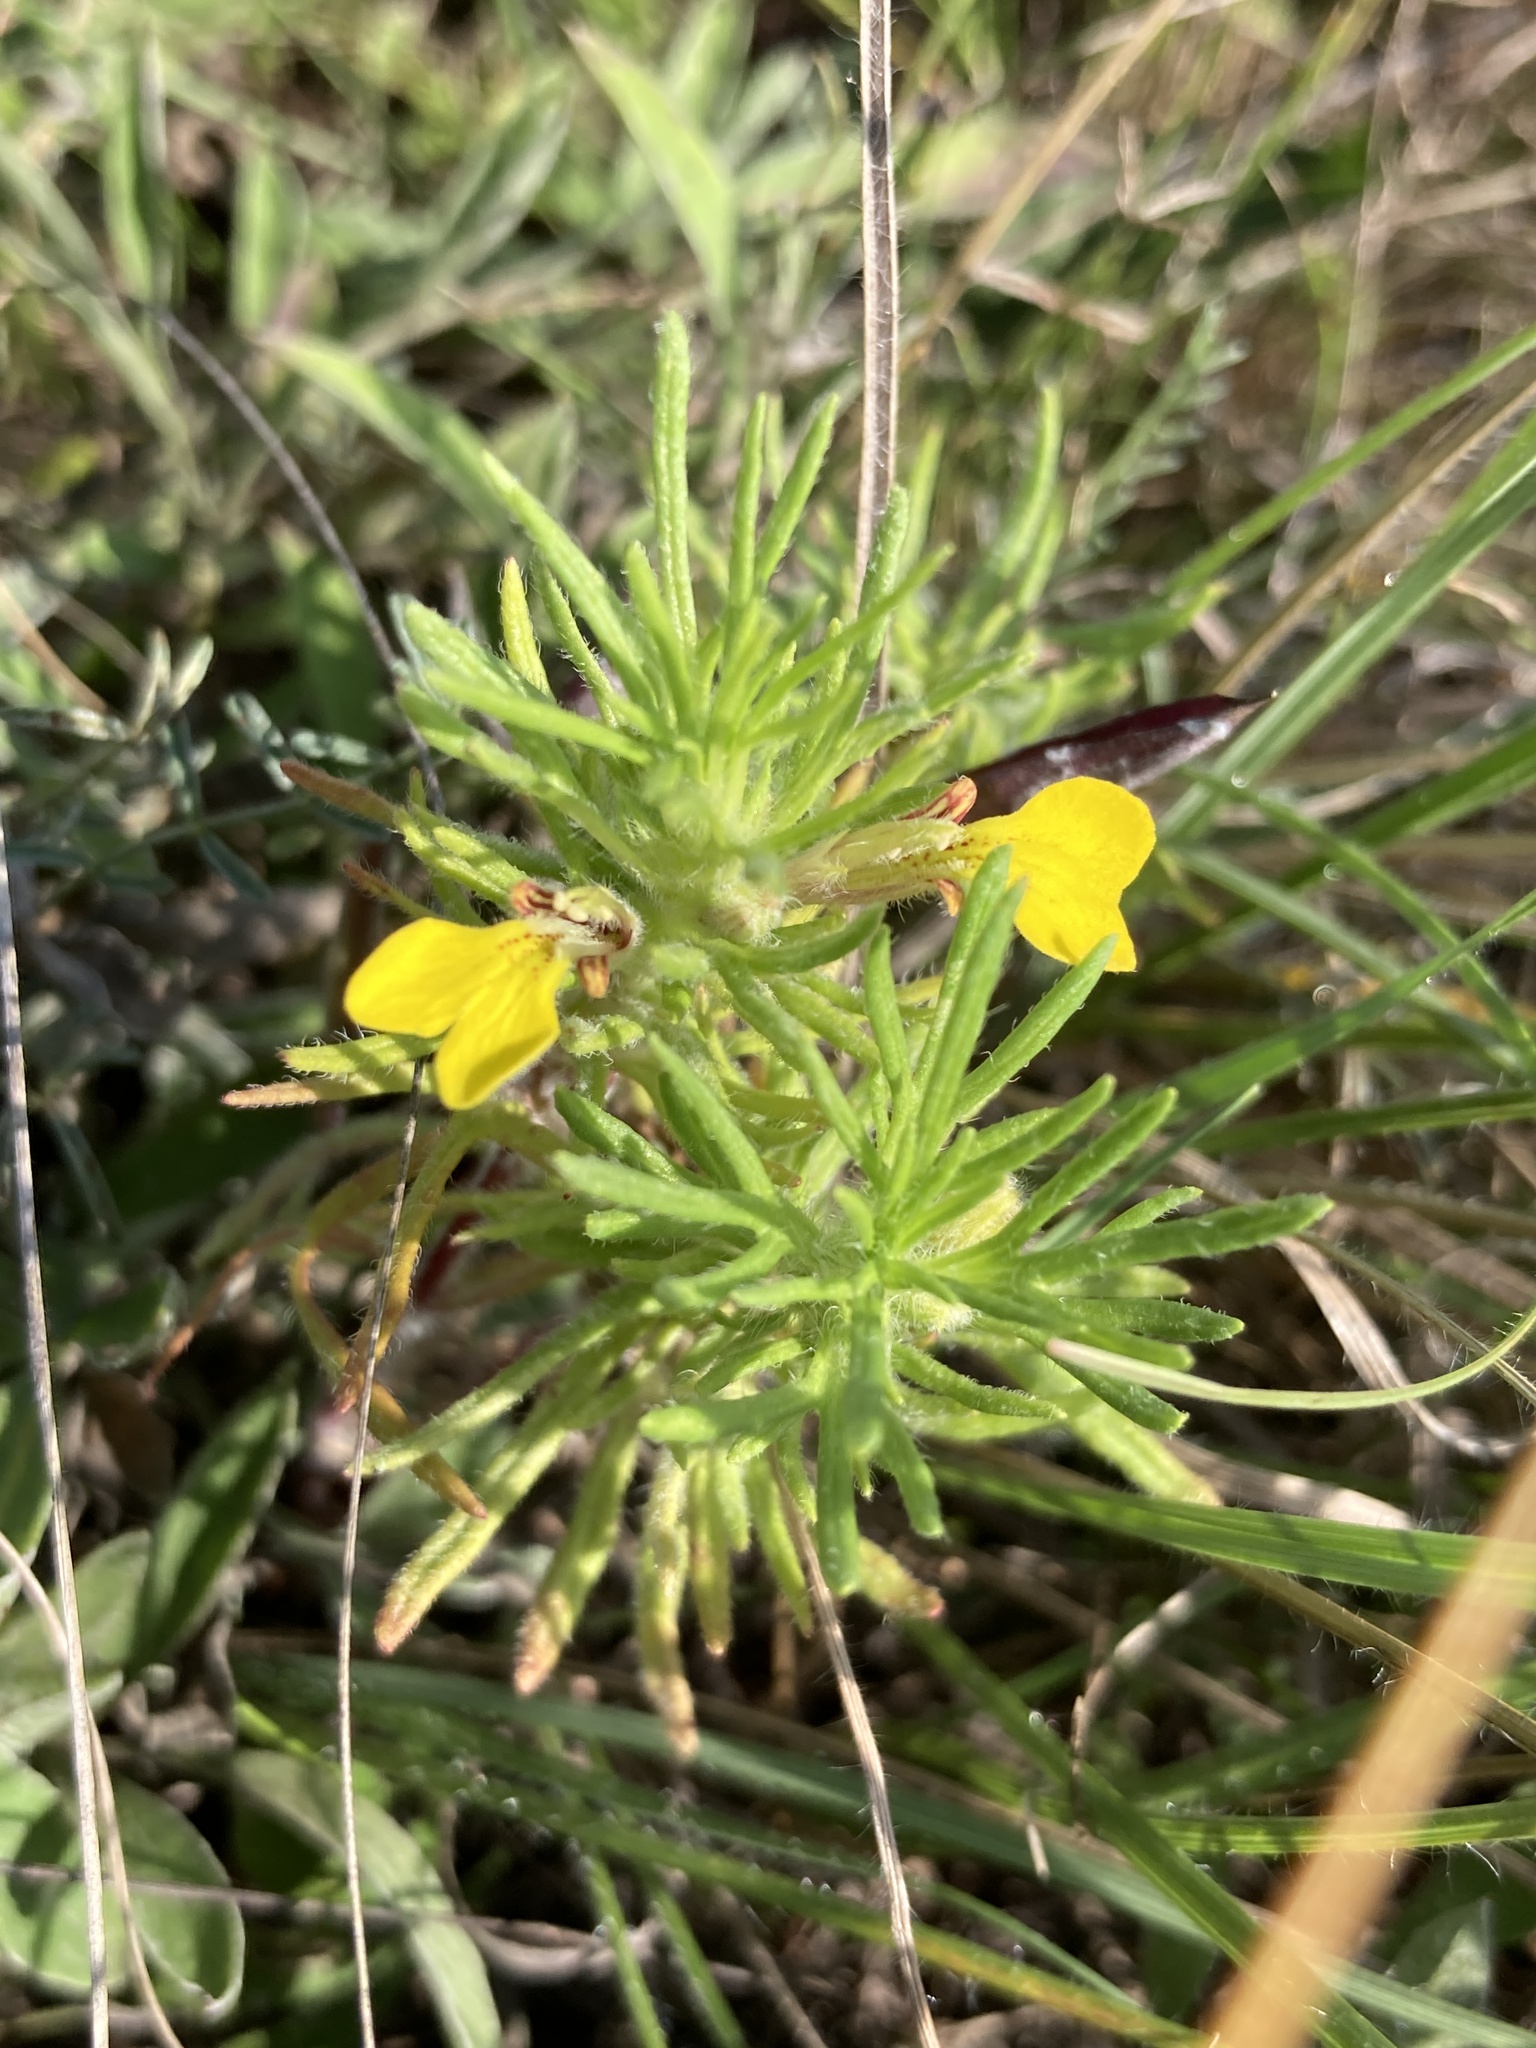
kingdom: Plantae
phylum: Tracheophyta
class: Magnoliopsida
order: Lamiales
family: Lamiaceae
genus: Ajuga
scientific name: Ajuga chamaepitys
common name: Ground-pine
